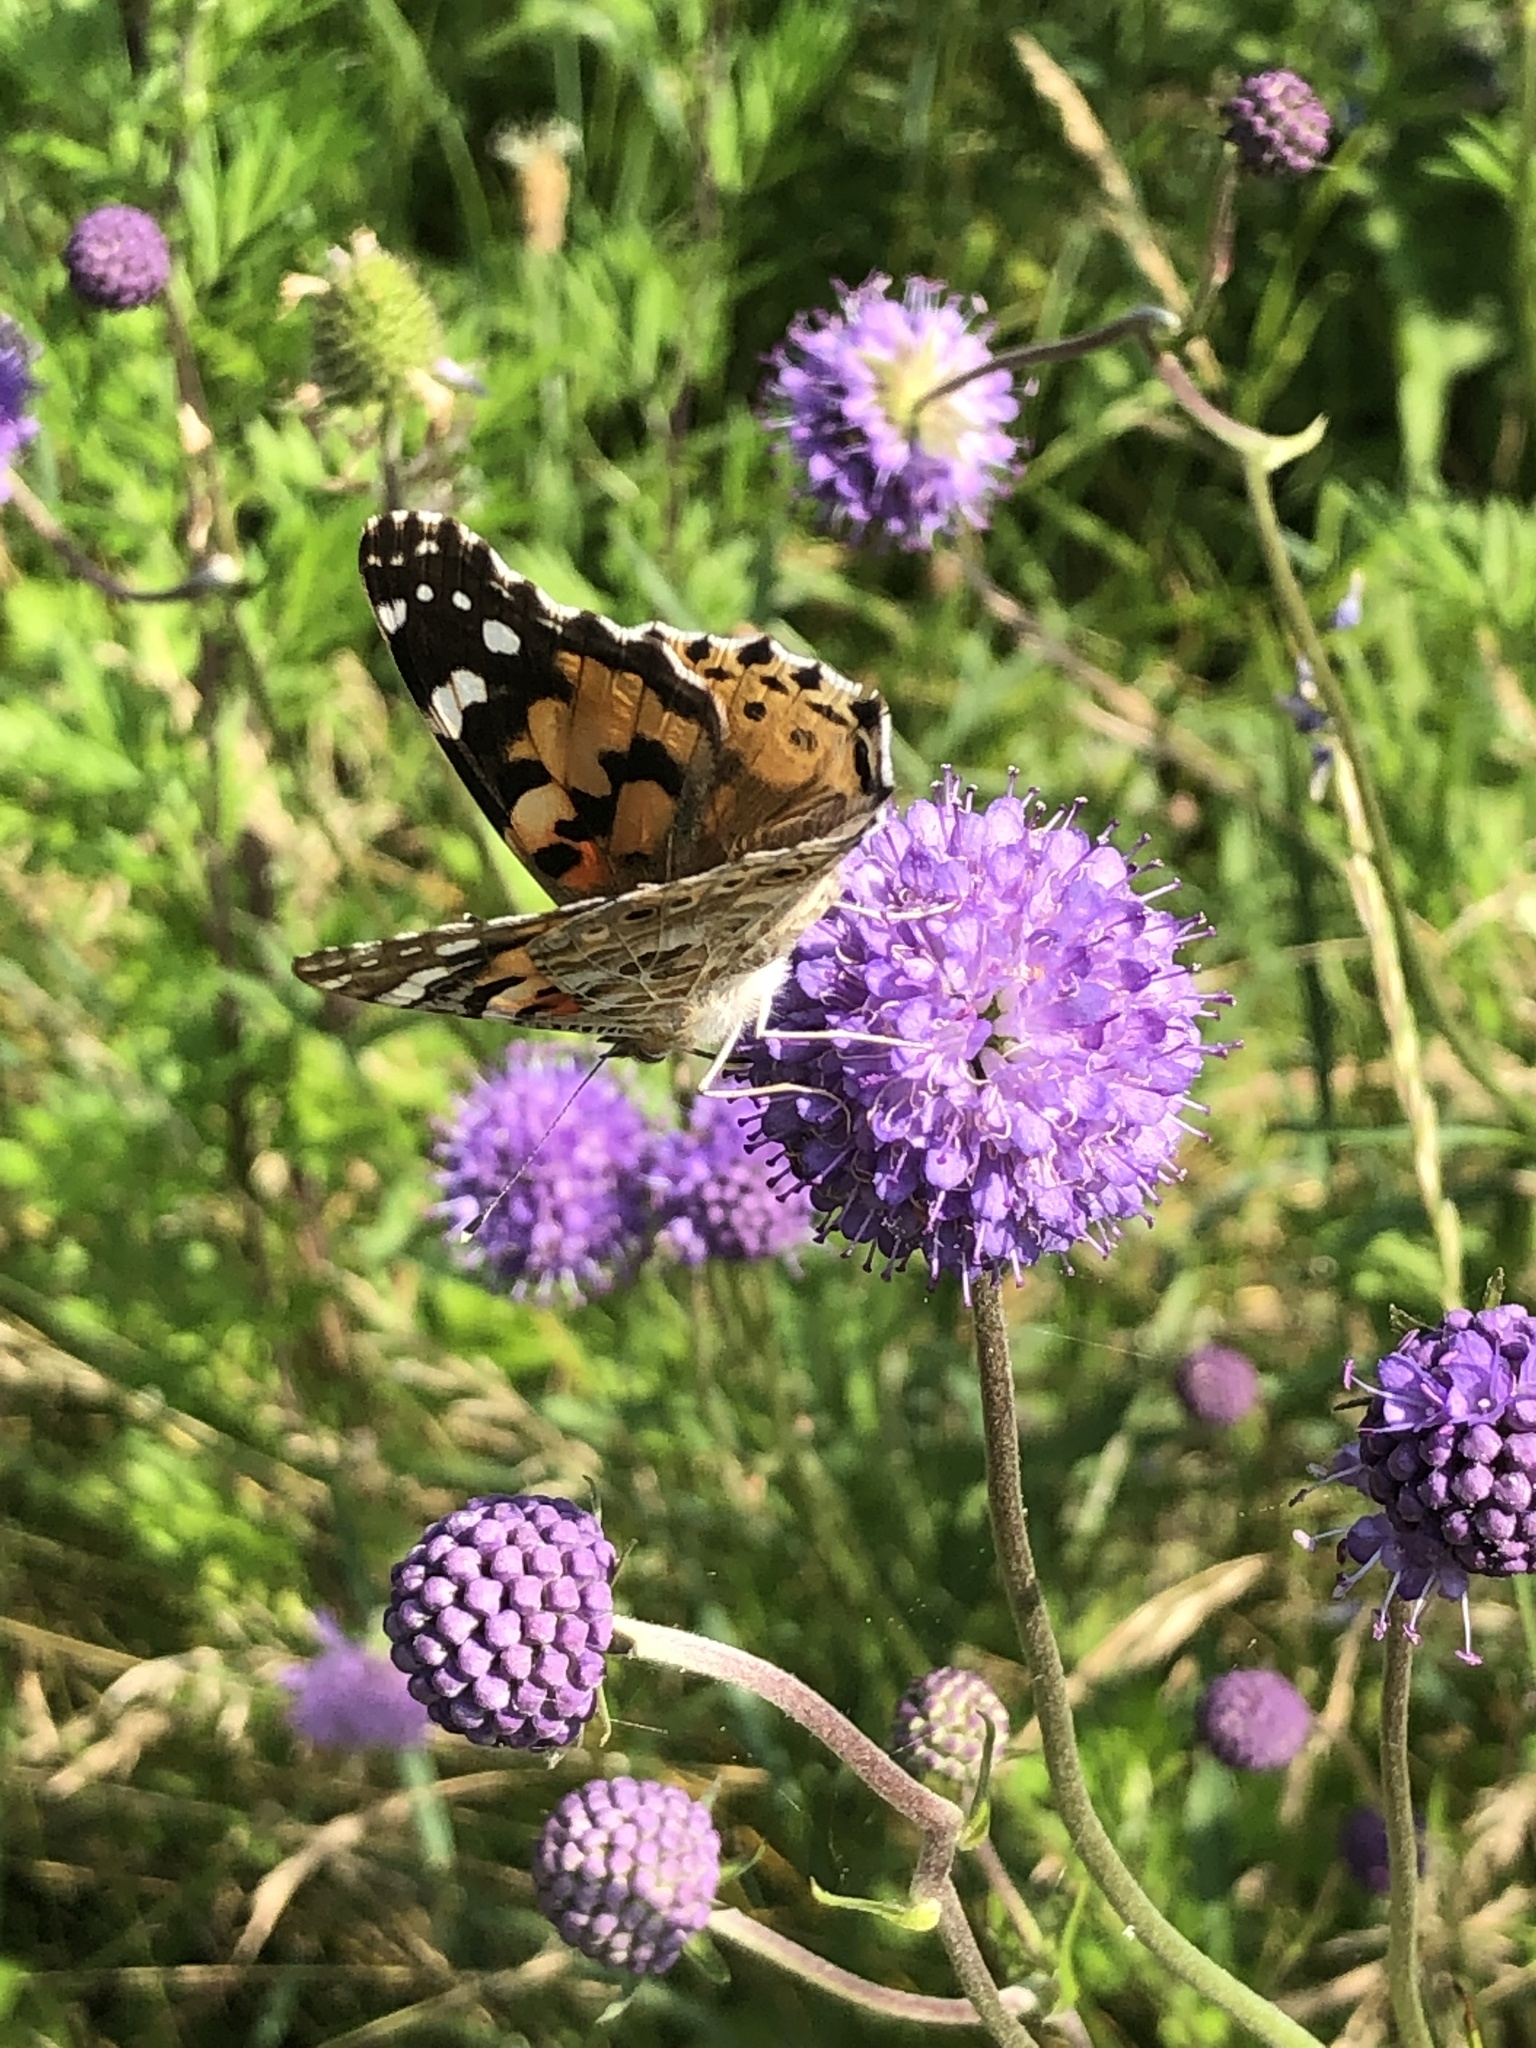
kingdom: Animalia
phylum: Arthropoda
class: Insecta
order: Lepidoptera
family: Nymphalidae
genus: Vanessa
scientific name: Vanessa cardui
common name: Painted lady
